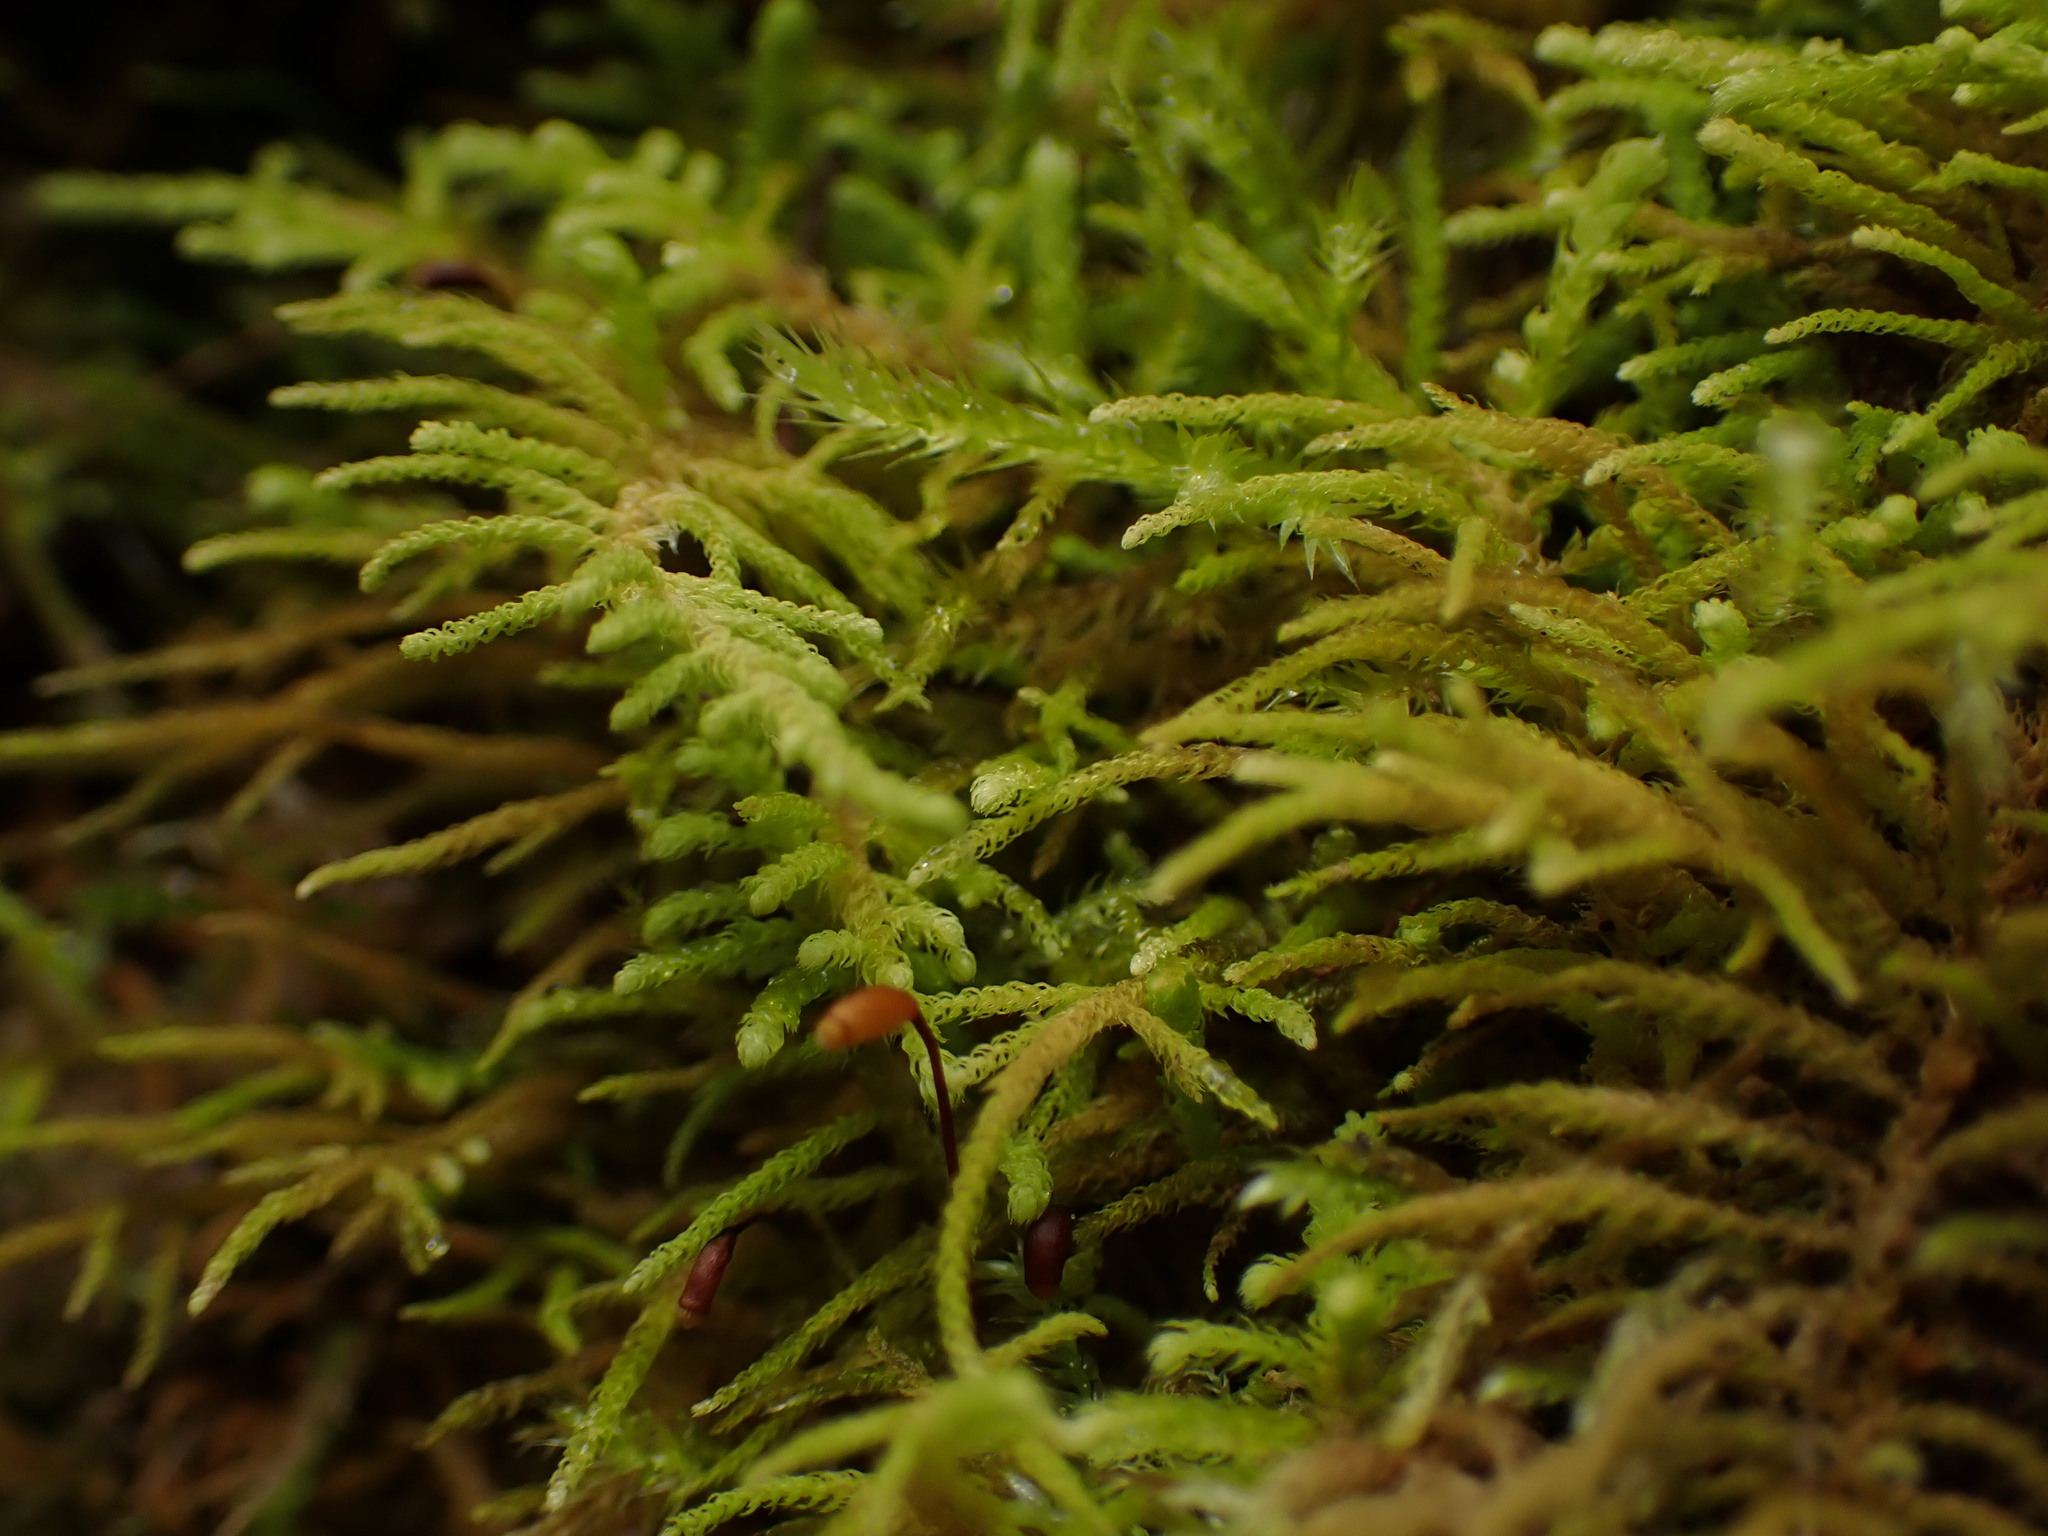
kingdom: Plantae
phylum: Bryophyta
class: Bryopsida
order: Hypnales
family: Brachytheciaceae
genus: Claopodium
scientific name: Claopodium crispifolium
